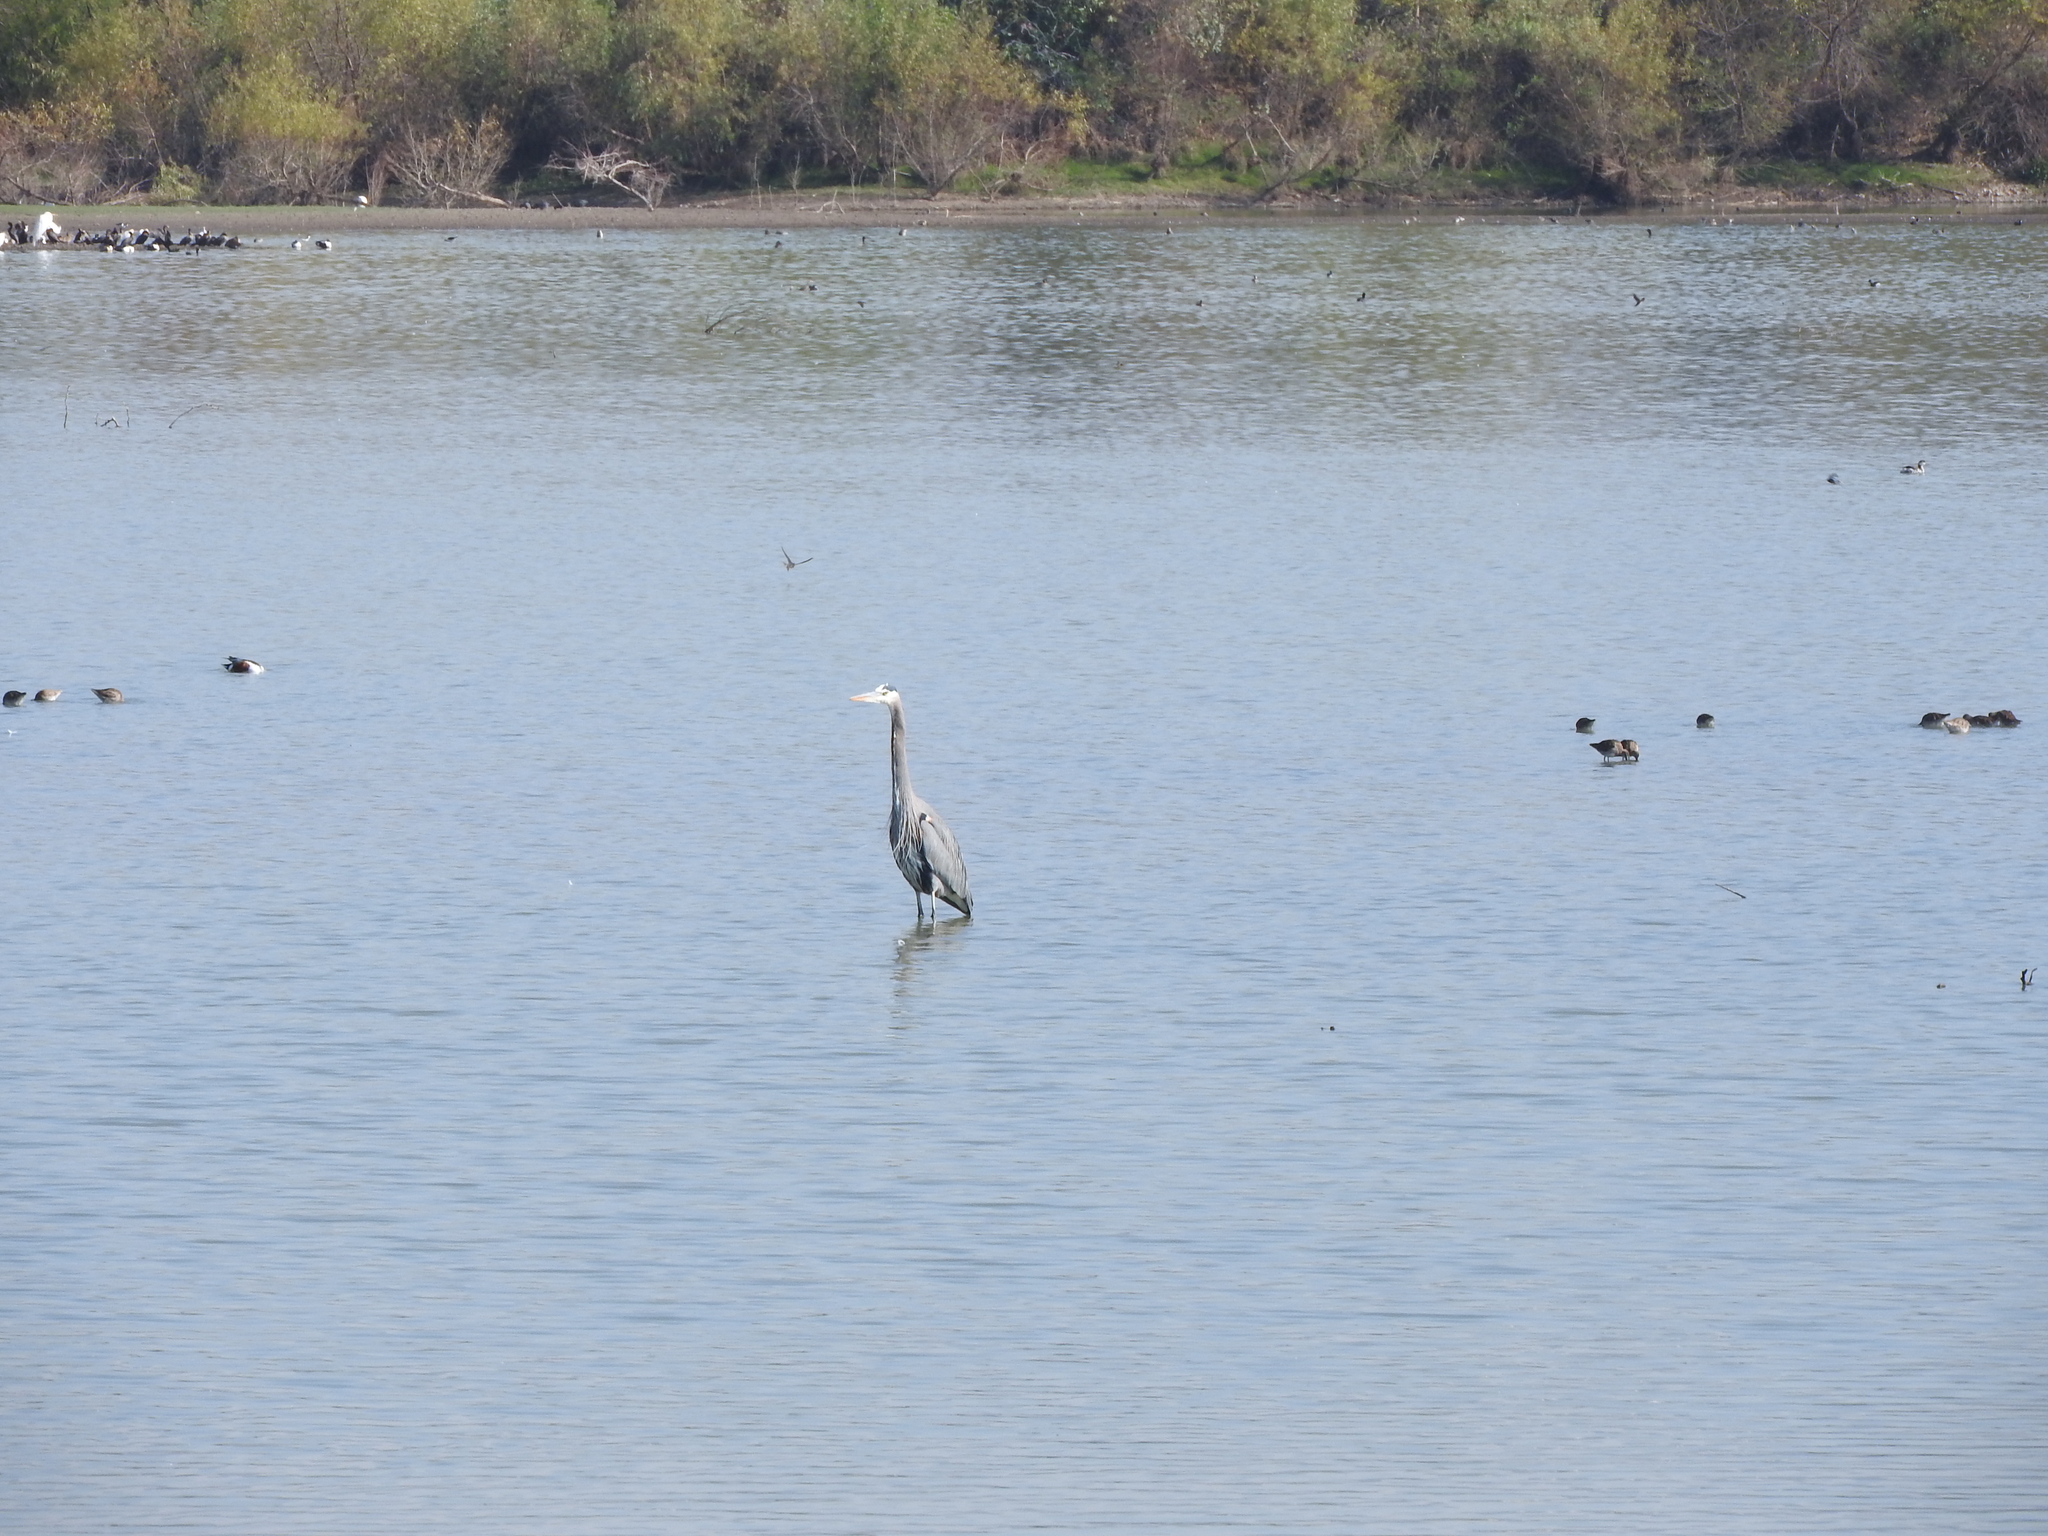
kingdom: Animalia
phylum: Chordata
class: Aves
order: Pelecaniformes
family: Ardeidae
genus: Ardea
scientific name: Ardea herodias
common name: Great blue heron
